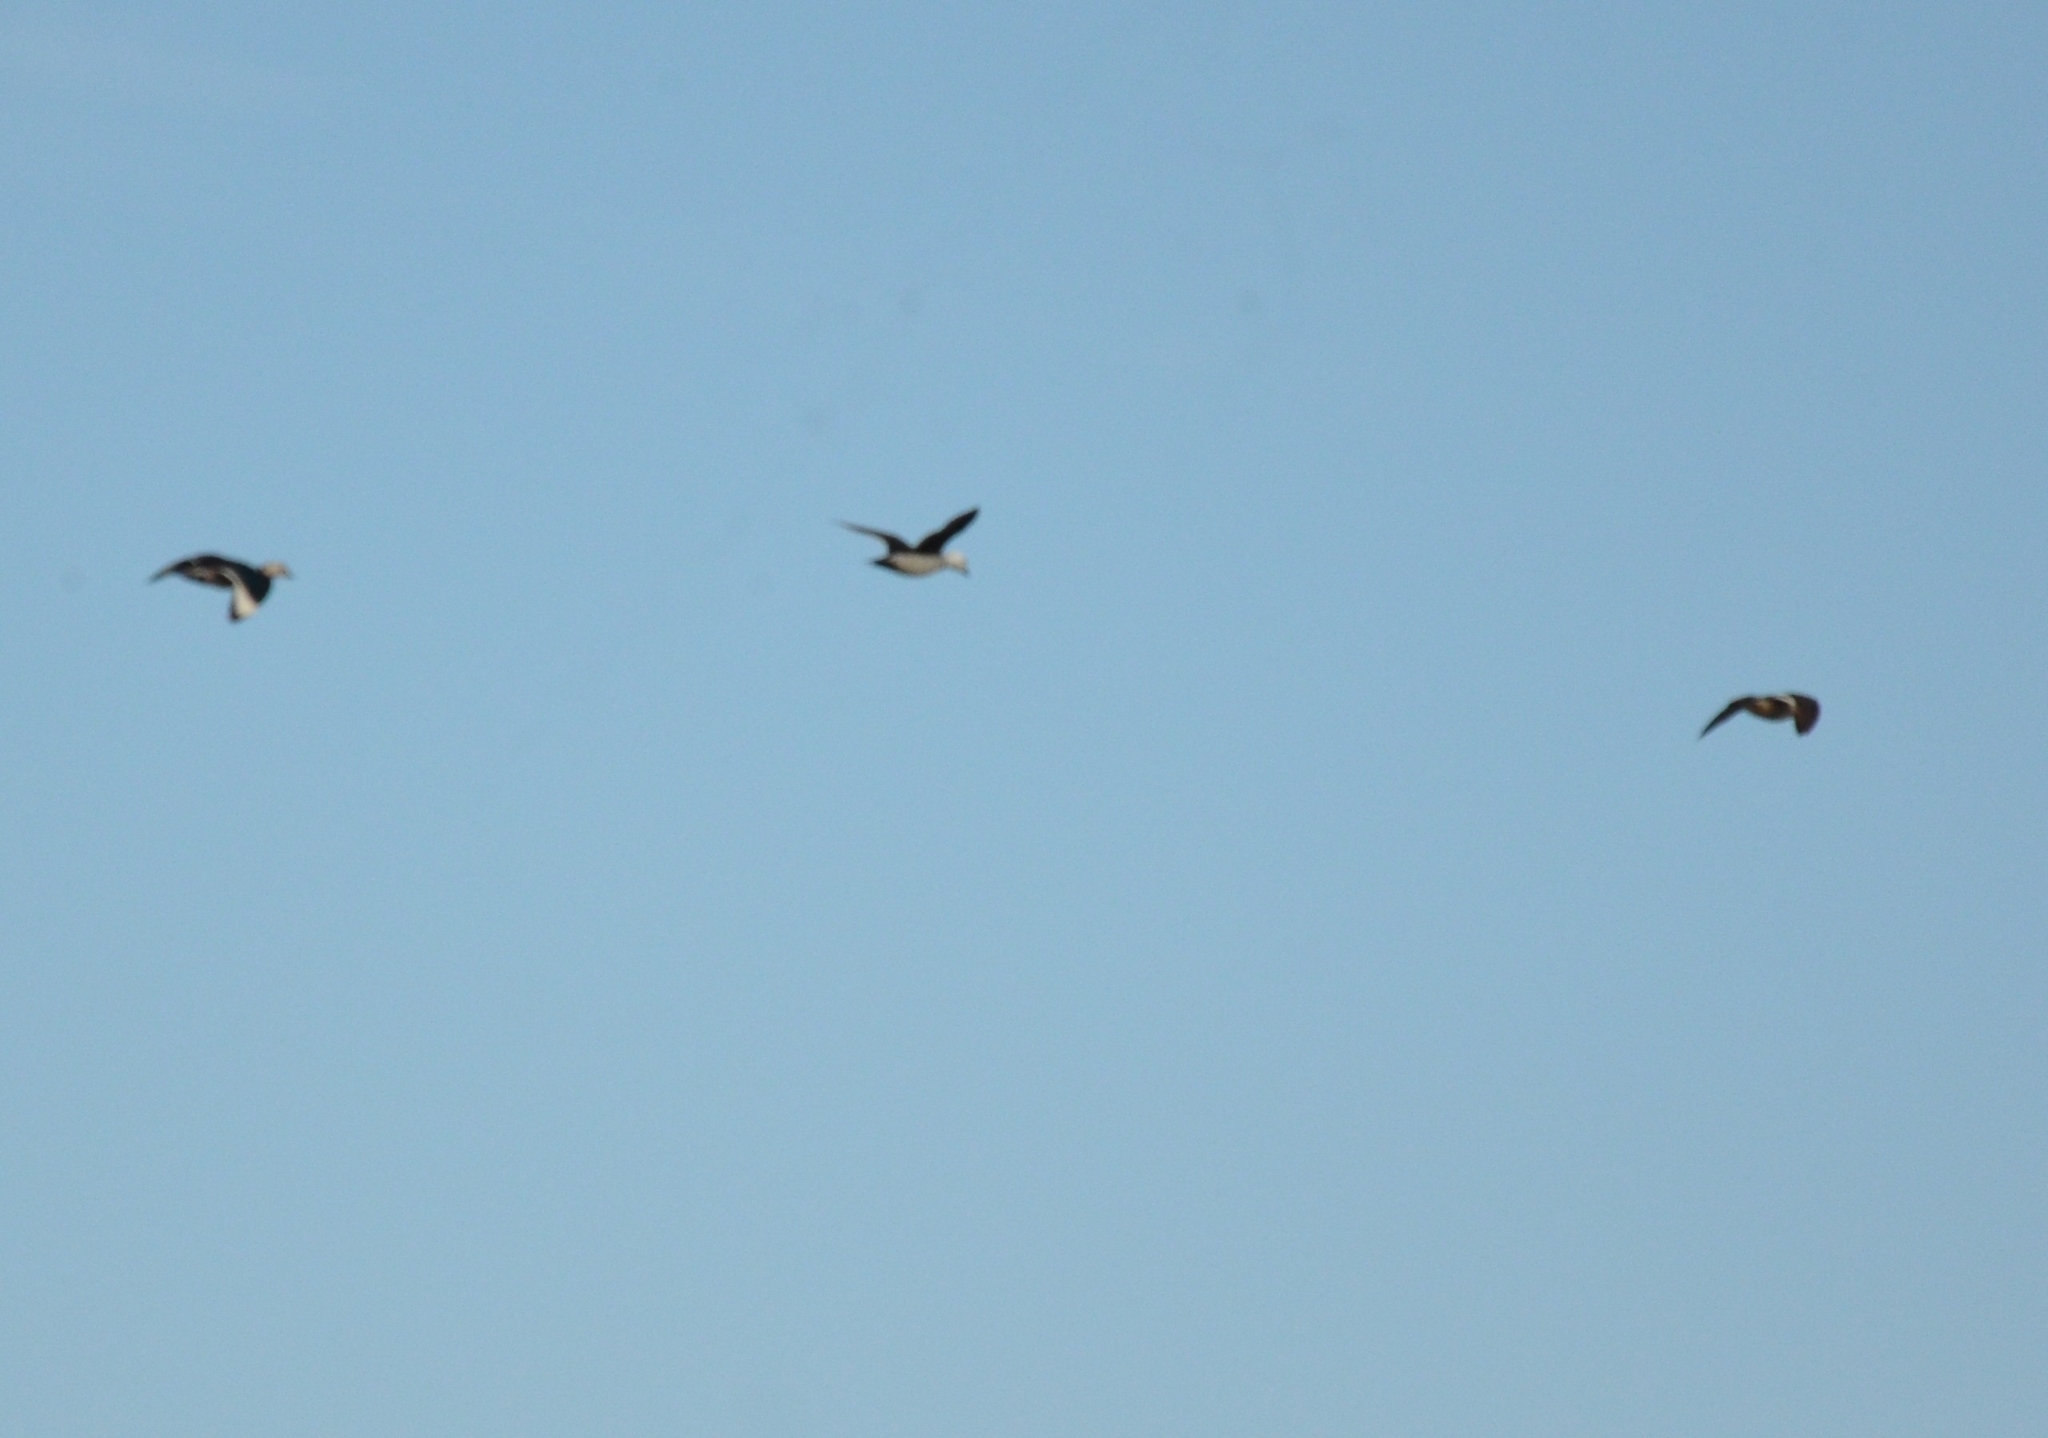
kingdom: Animalia
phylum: Chordata
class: Aves
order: Anseriformes
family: Anatidae
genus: Nettapus
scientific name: Nettapus coromandelianus
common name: Cotton pygmy-goose
